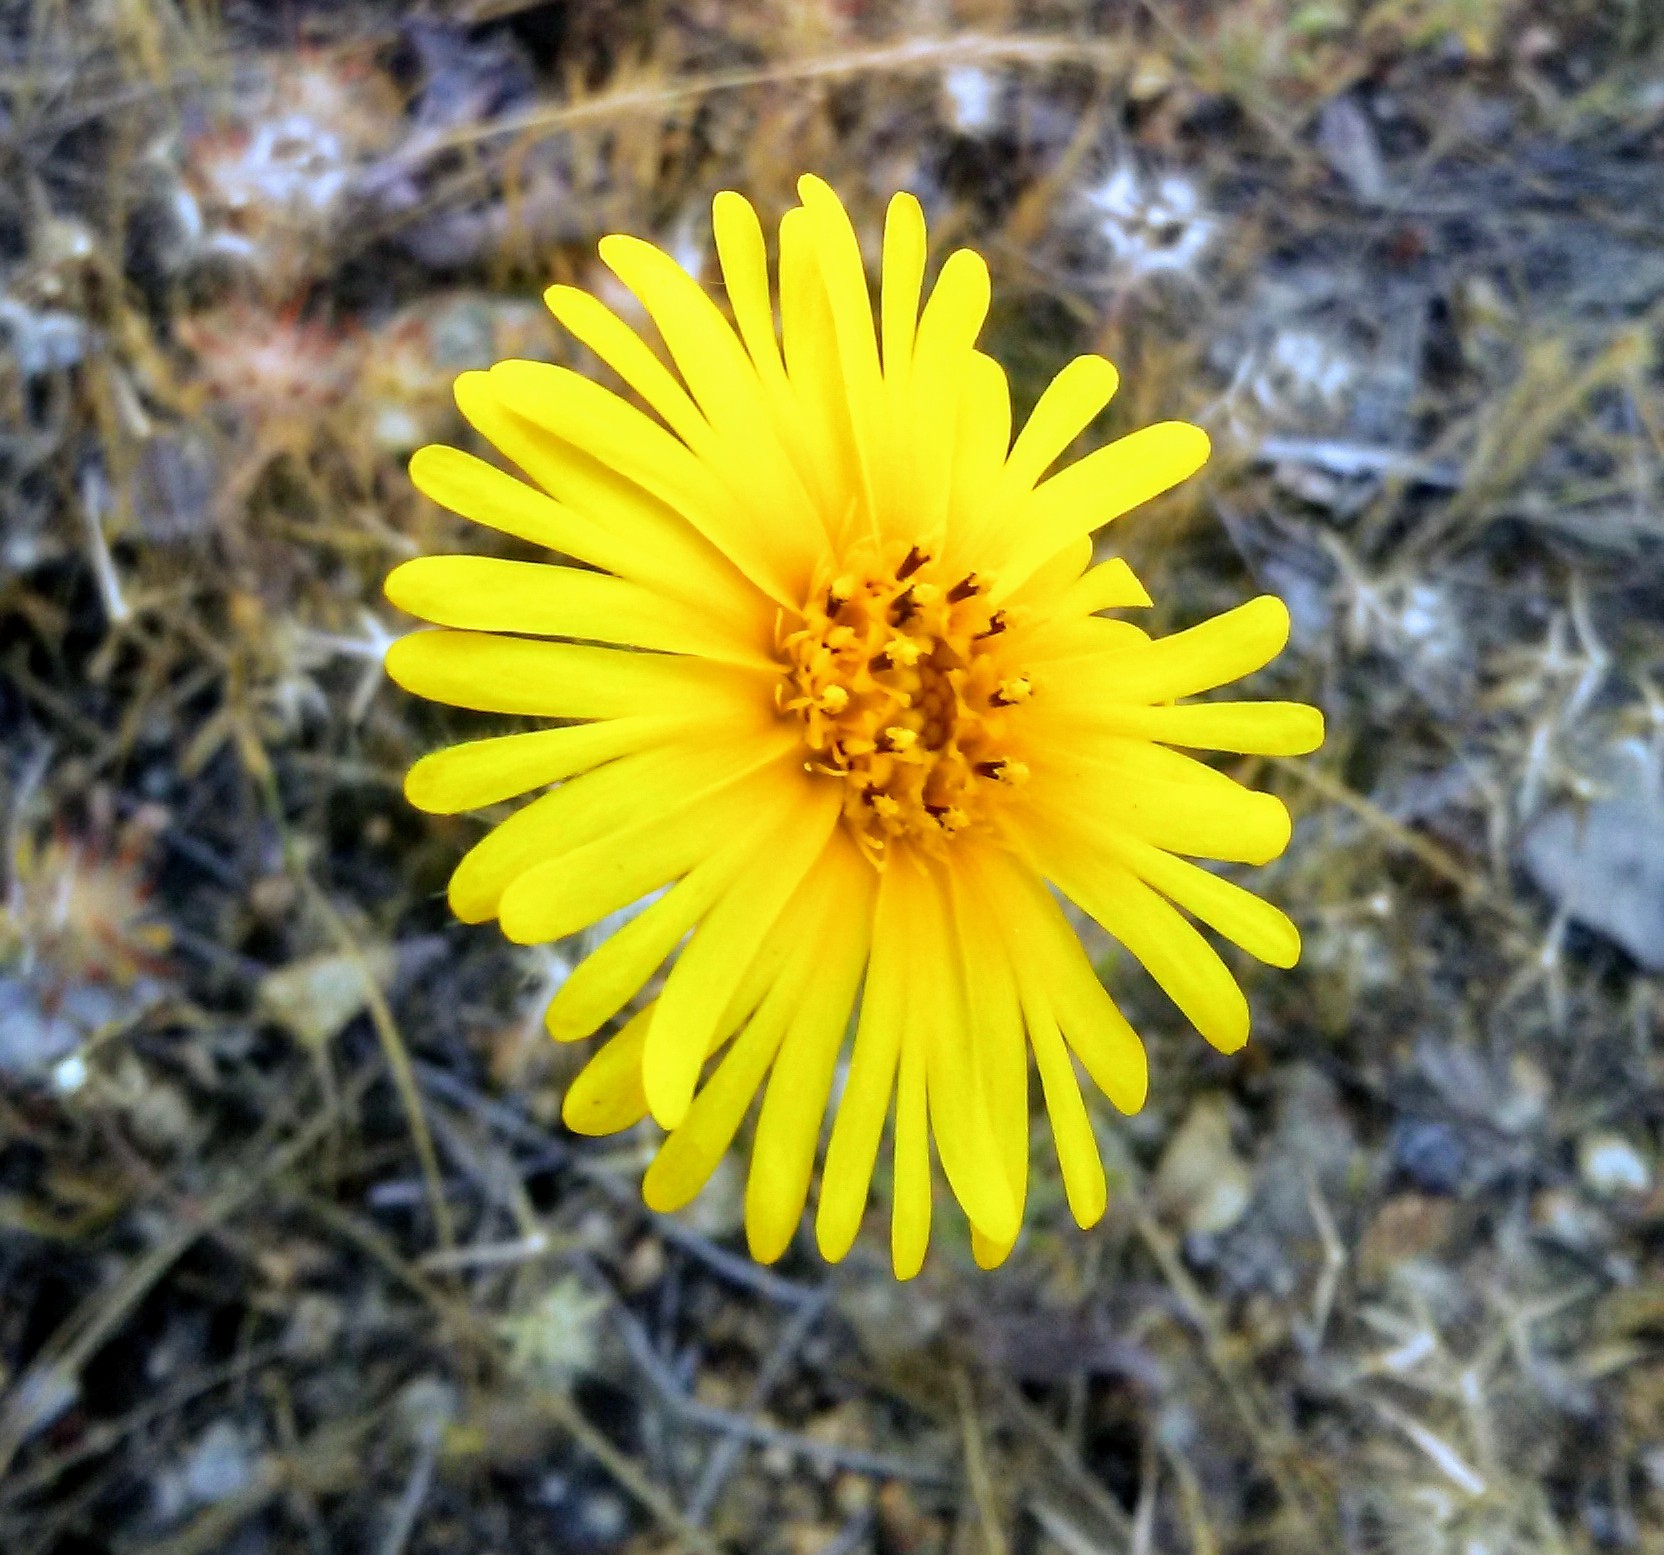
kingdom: Plantae
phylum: Tracheophyta
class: Magnoliopsida
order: Asterales
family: Asteraceae
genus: Madia
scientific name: Madia elegans
